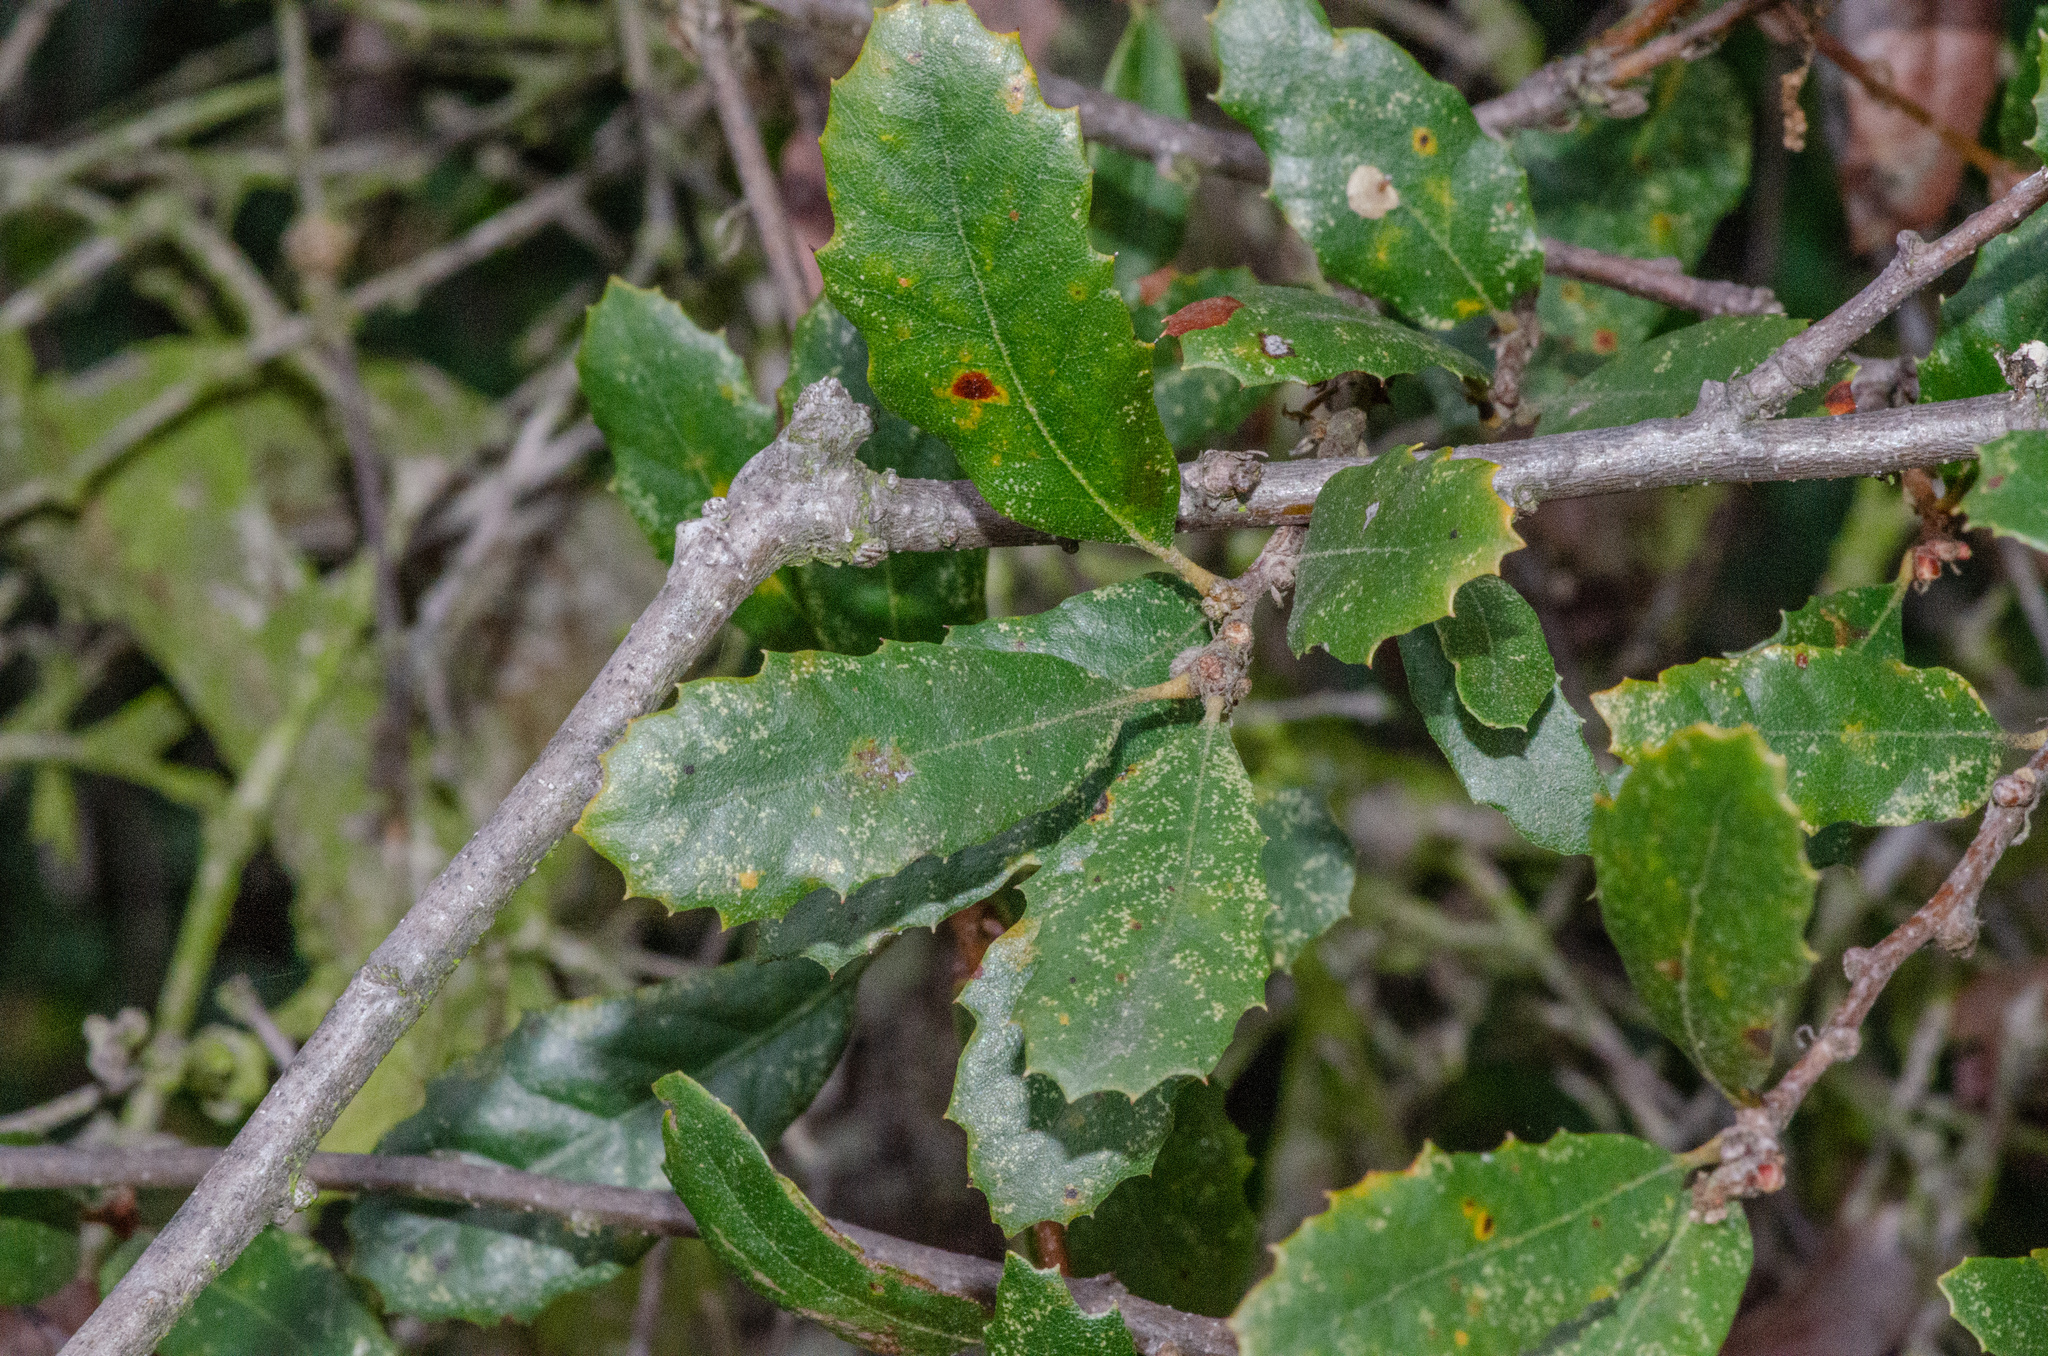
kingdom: Plantae
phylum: Tracheophyta
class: Magnoliopsida
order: Fagales
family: Fagaceae
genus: Quercus
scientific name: Quercus acutidens
